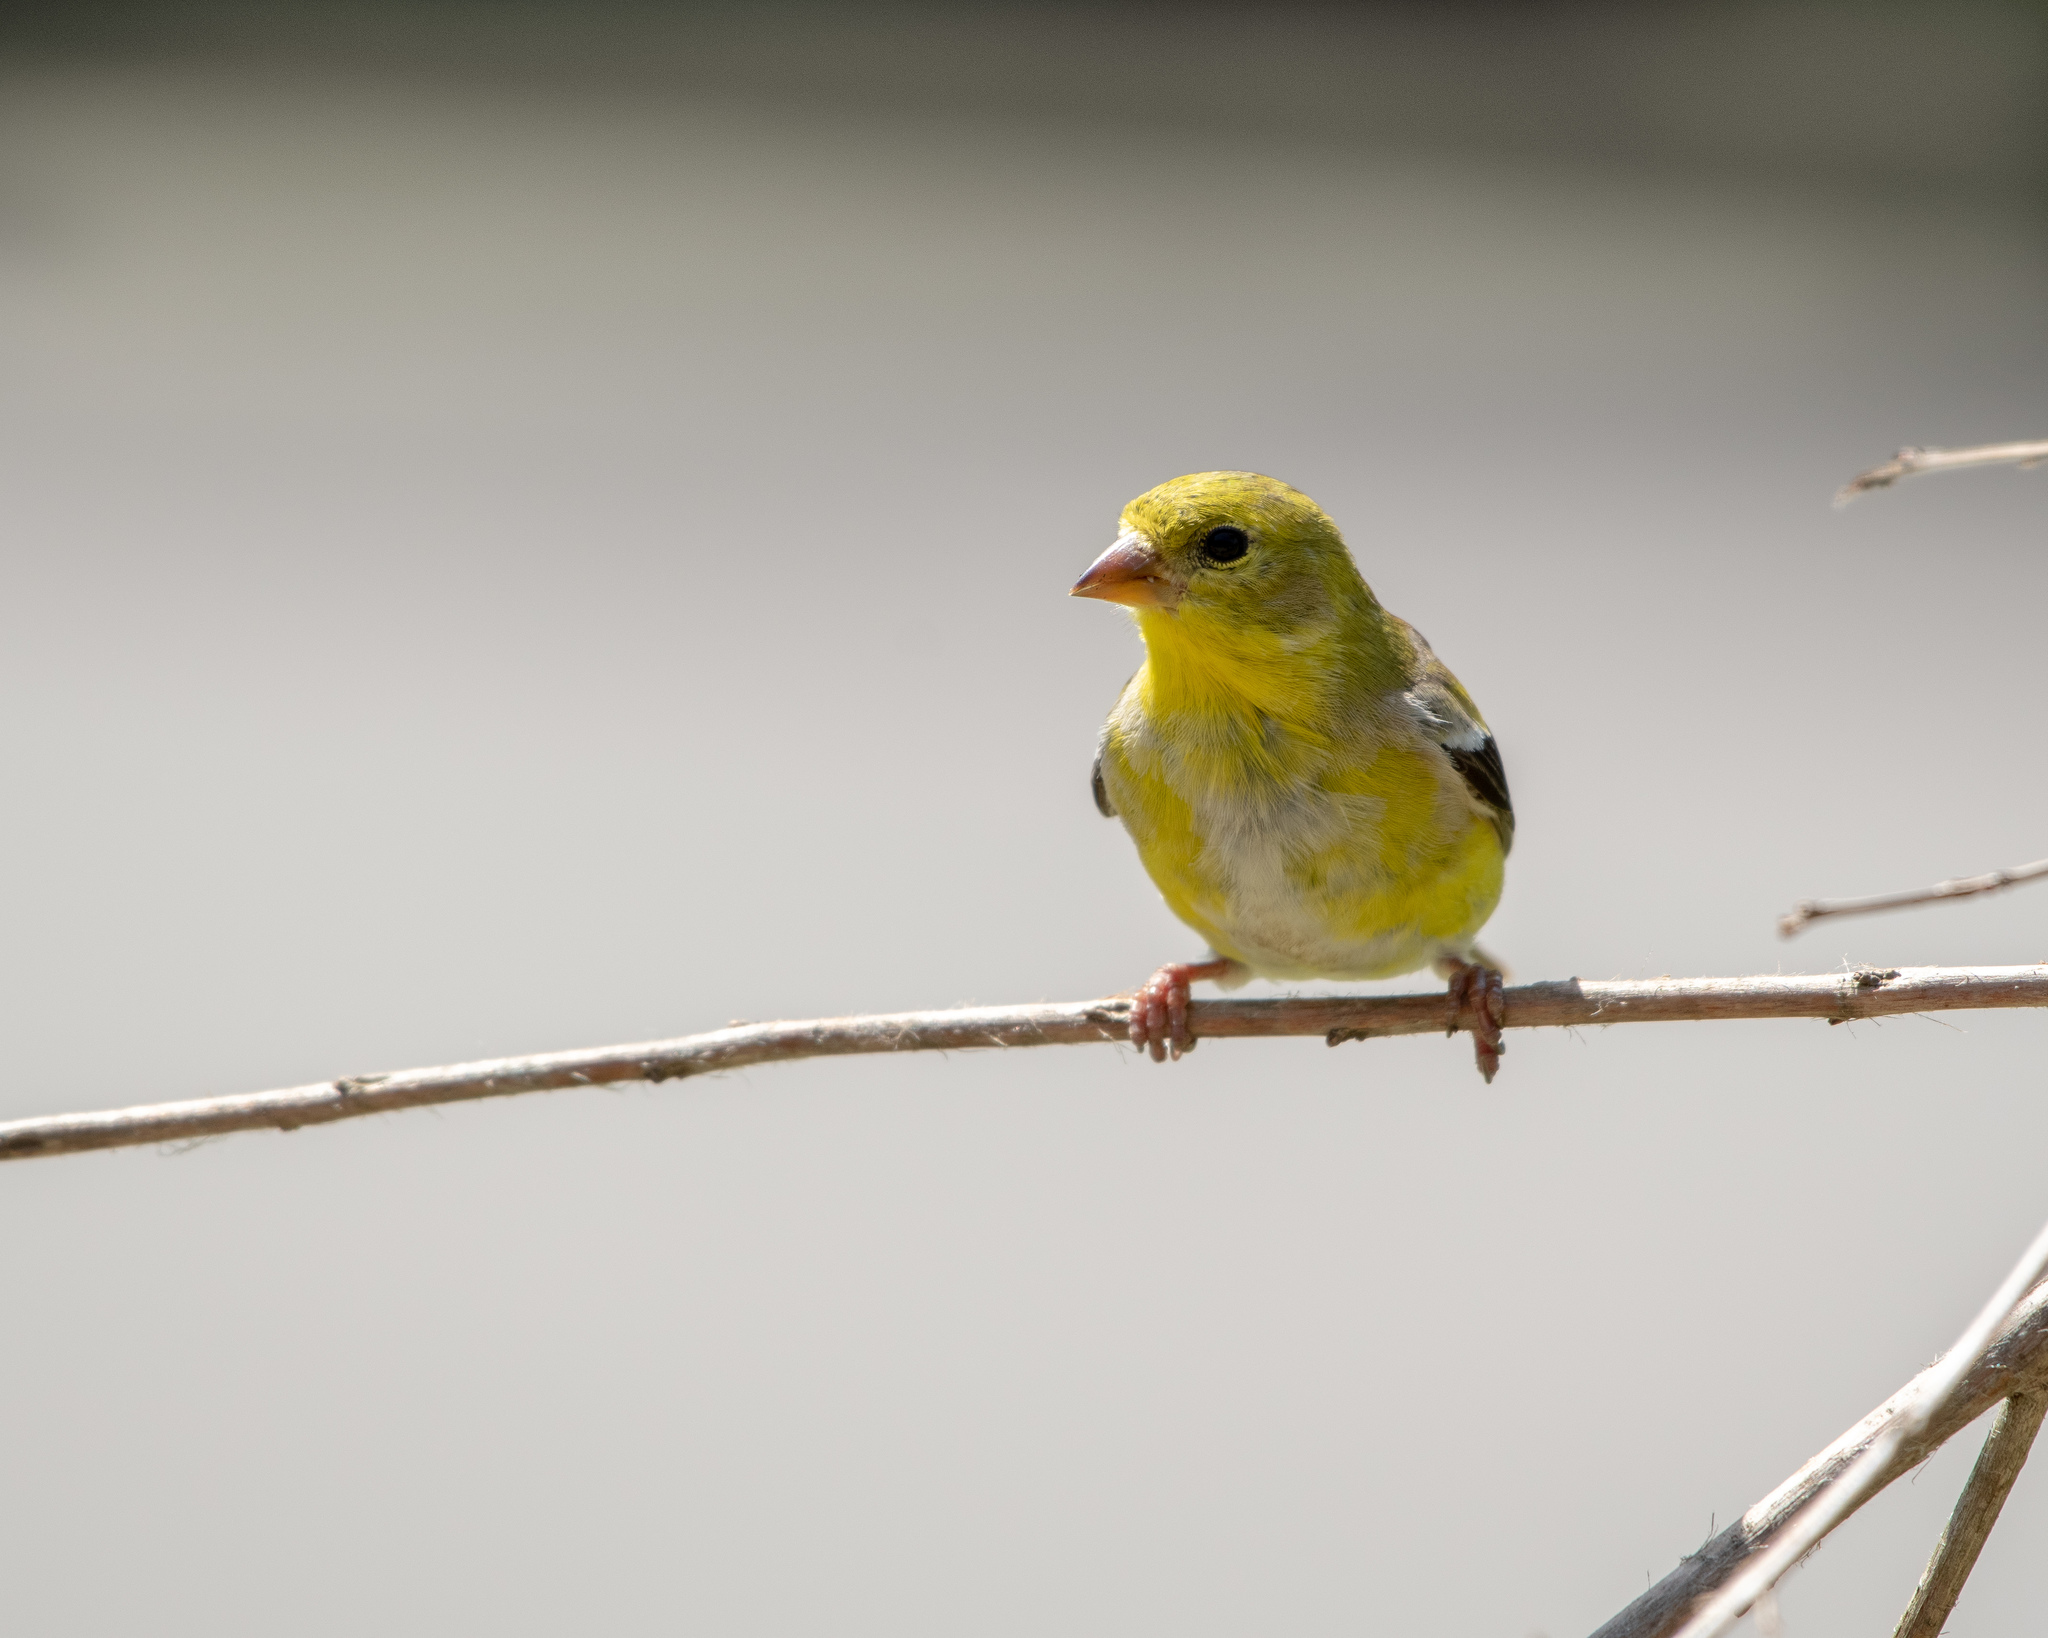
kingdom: Animalia
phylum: Chordata
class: Aves
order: Passeriformes
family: Fringillidae
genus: Spinus
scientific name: Spinus tristis
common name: American goldfinch
